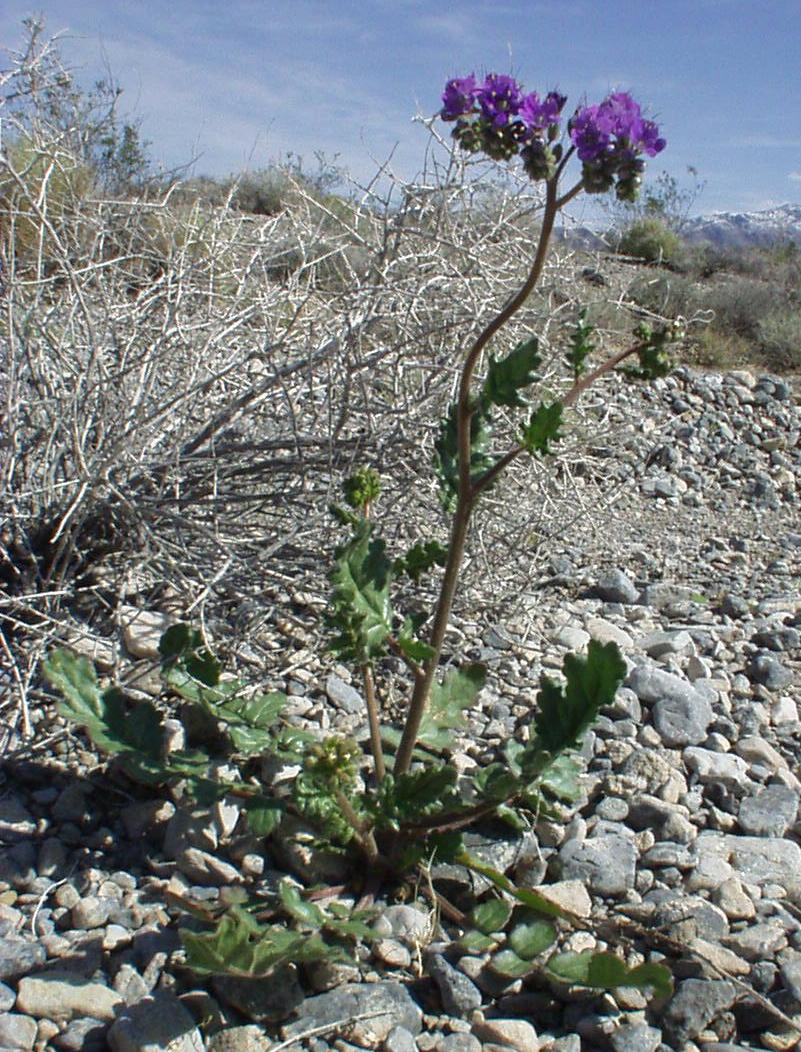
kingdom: Plantae
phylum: Tracheophyta
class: Magnoliopsida
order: Boraginales
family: Hydrophyllaceae
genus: Phacelia
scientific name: Phacelia crenulata
